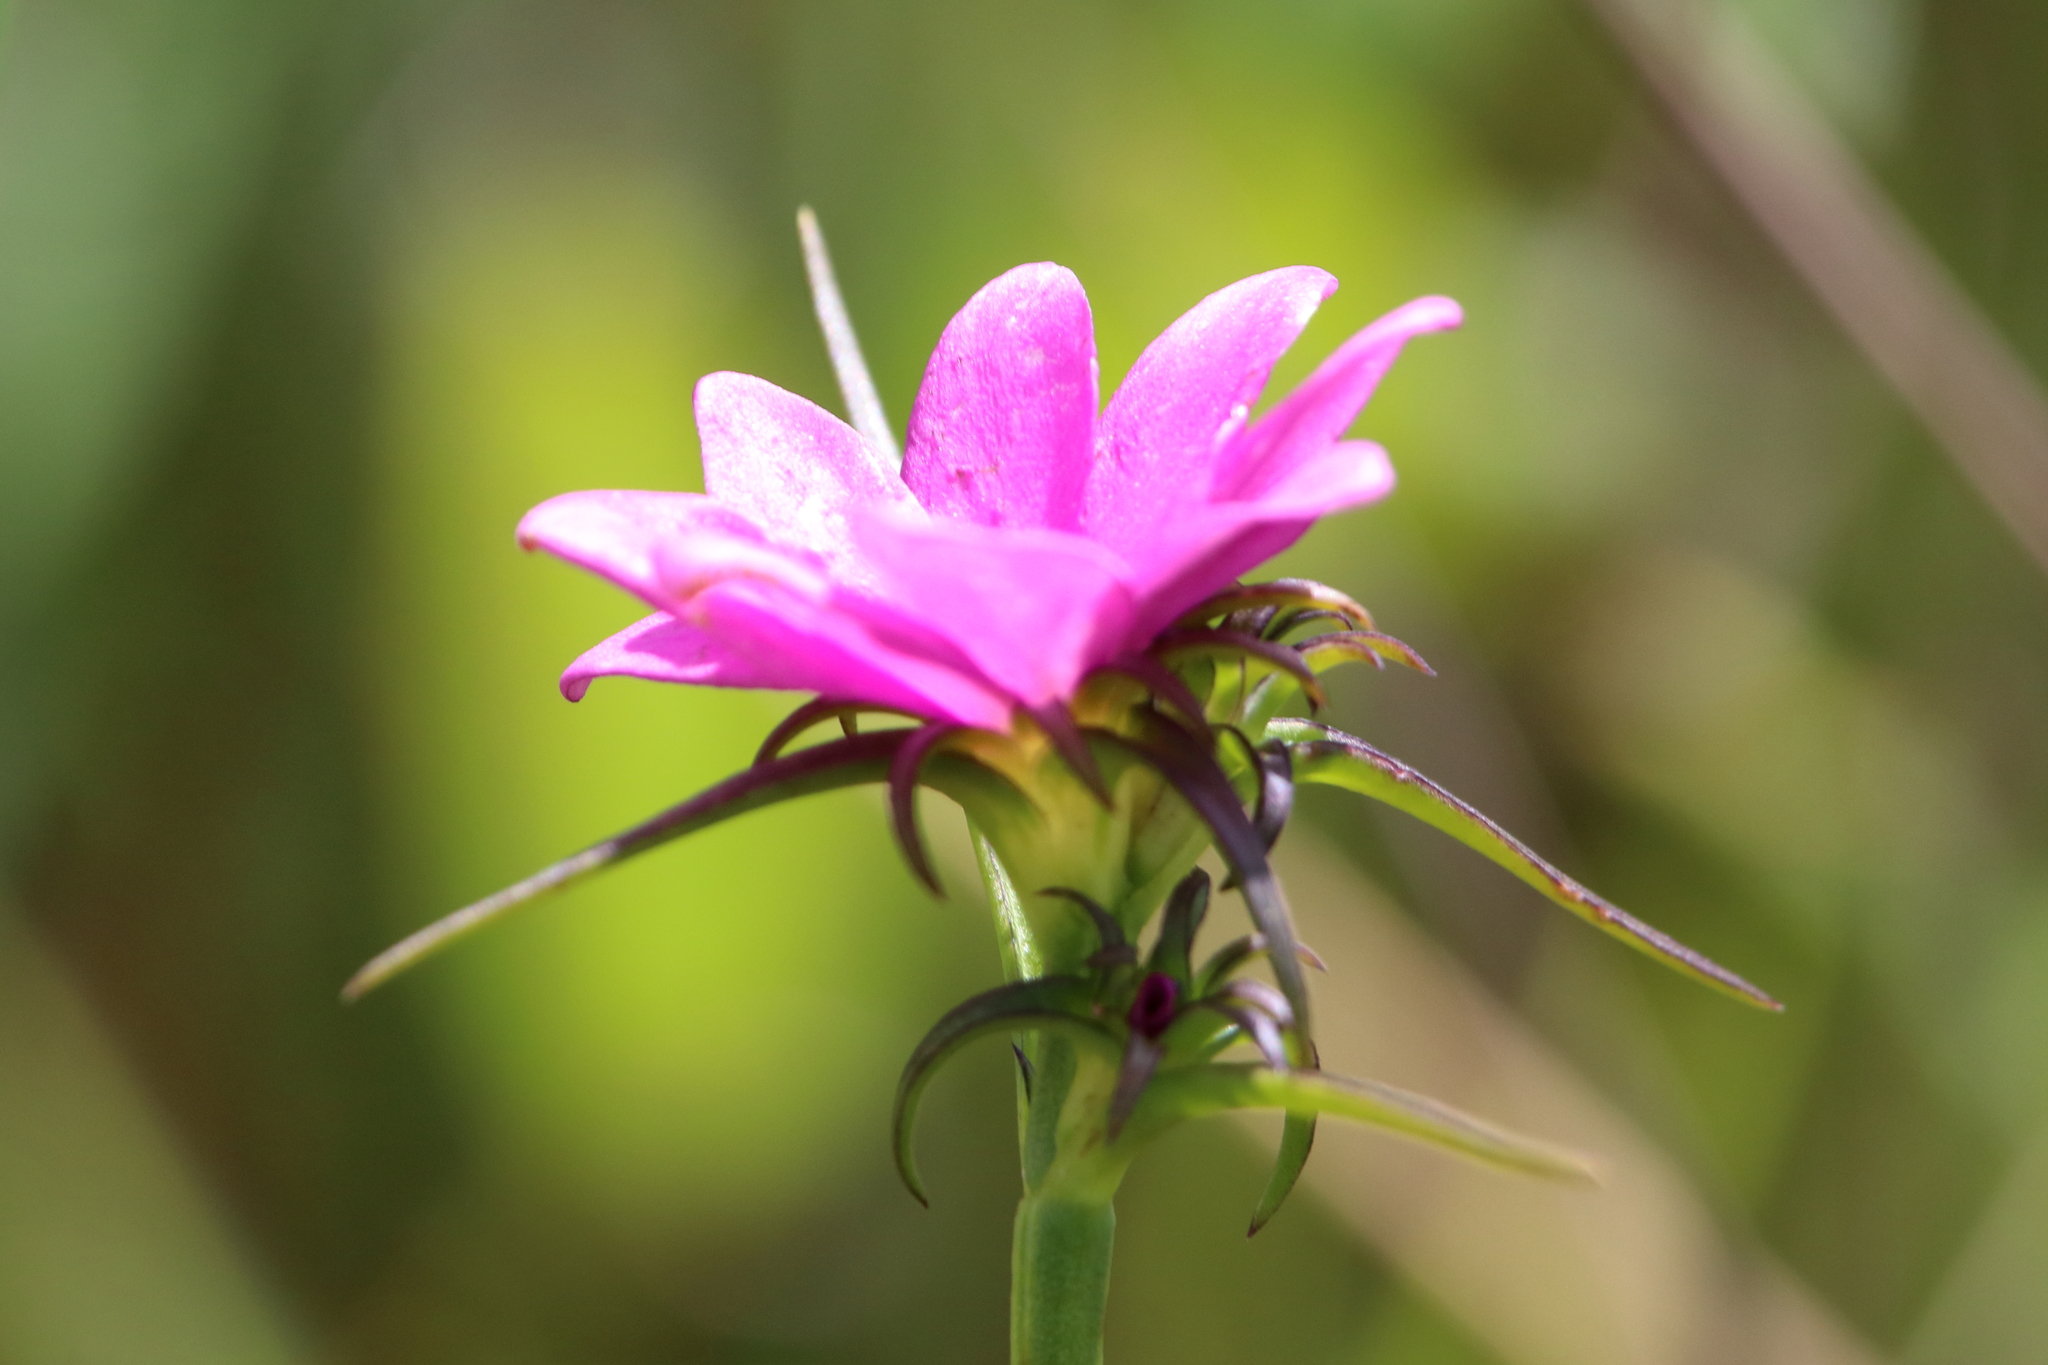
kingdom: Plantae
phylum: Tracheophyta
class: Magnoliopsida
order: Gentianales
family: Gentianaceae
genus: Sabatia
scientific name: Sabatia gentianoides
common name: Pinewoods rose-gentian
